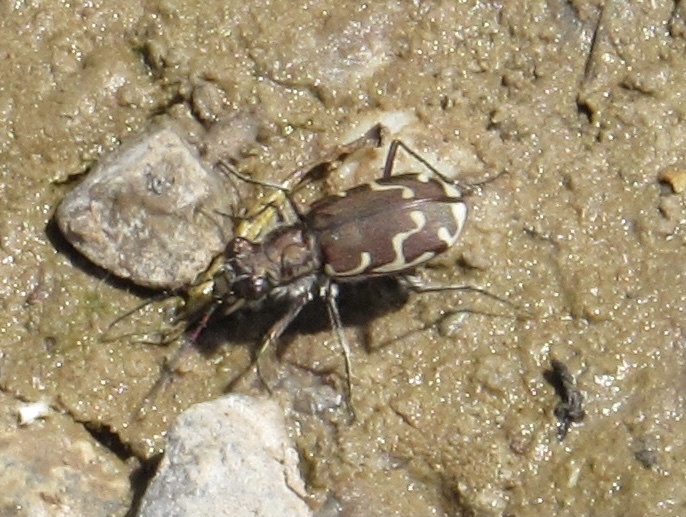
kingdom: Animalia
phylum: Arthropoda
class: Insecta
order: Coleoptera
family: Carabidae
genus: Cicindela
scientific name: Cicindela repanda
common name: Bronzed tiger beetle
